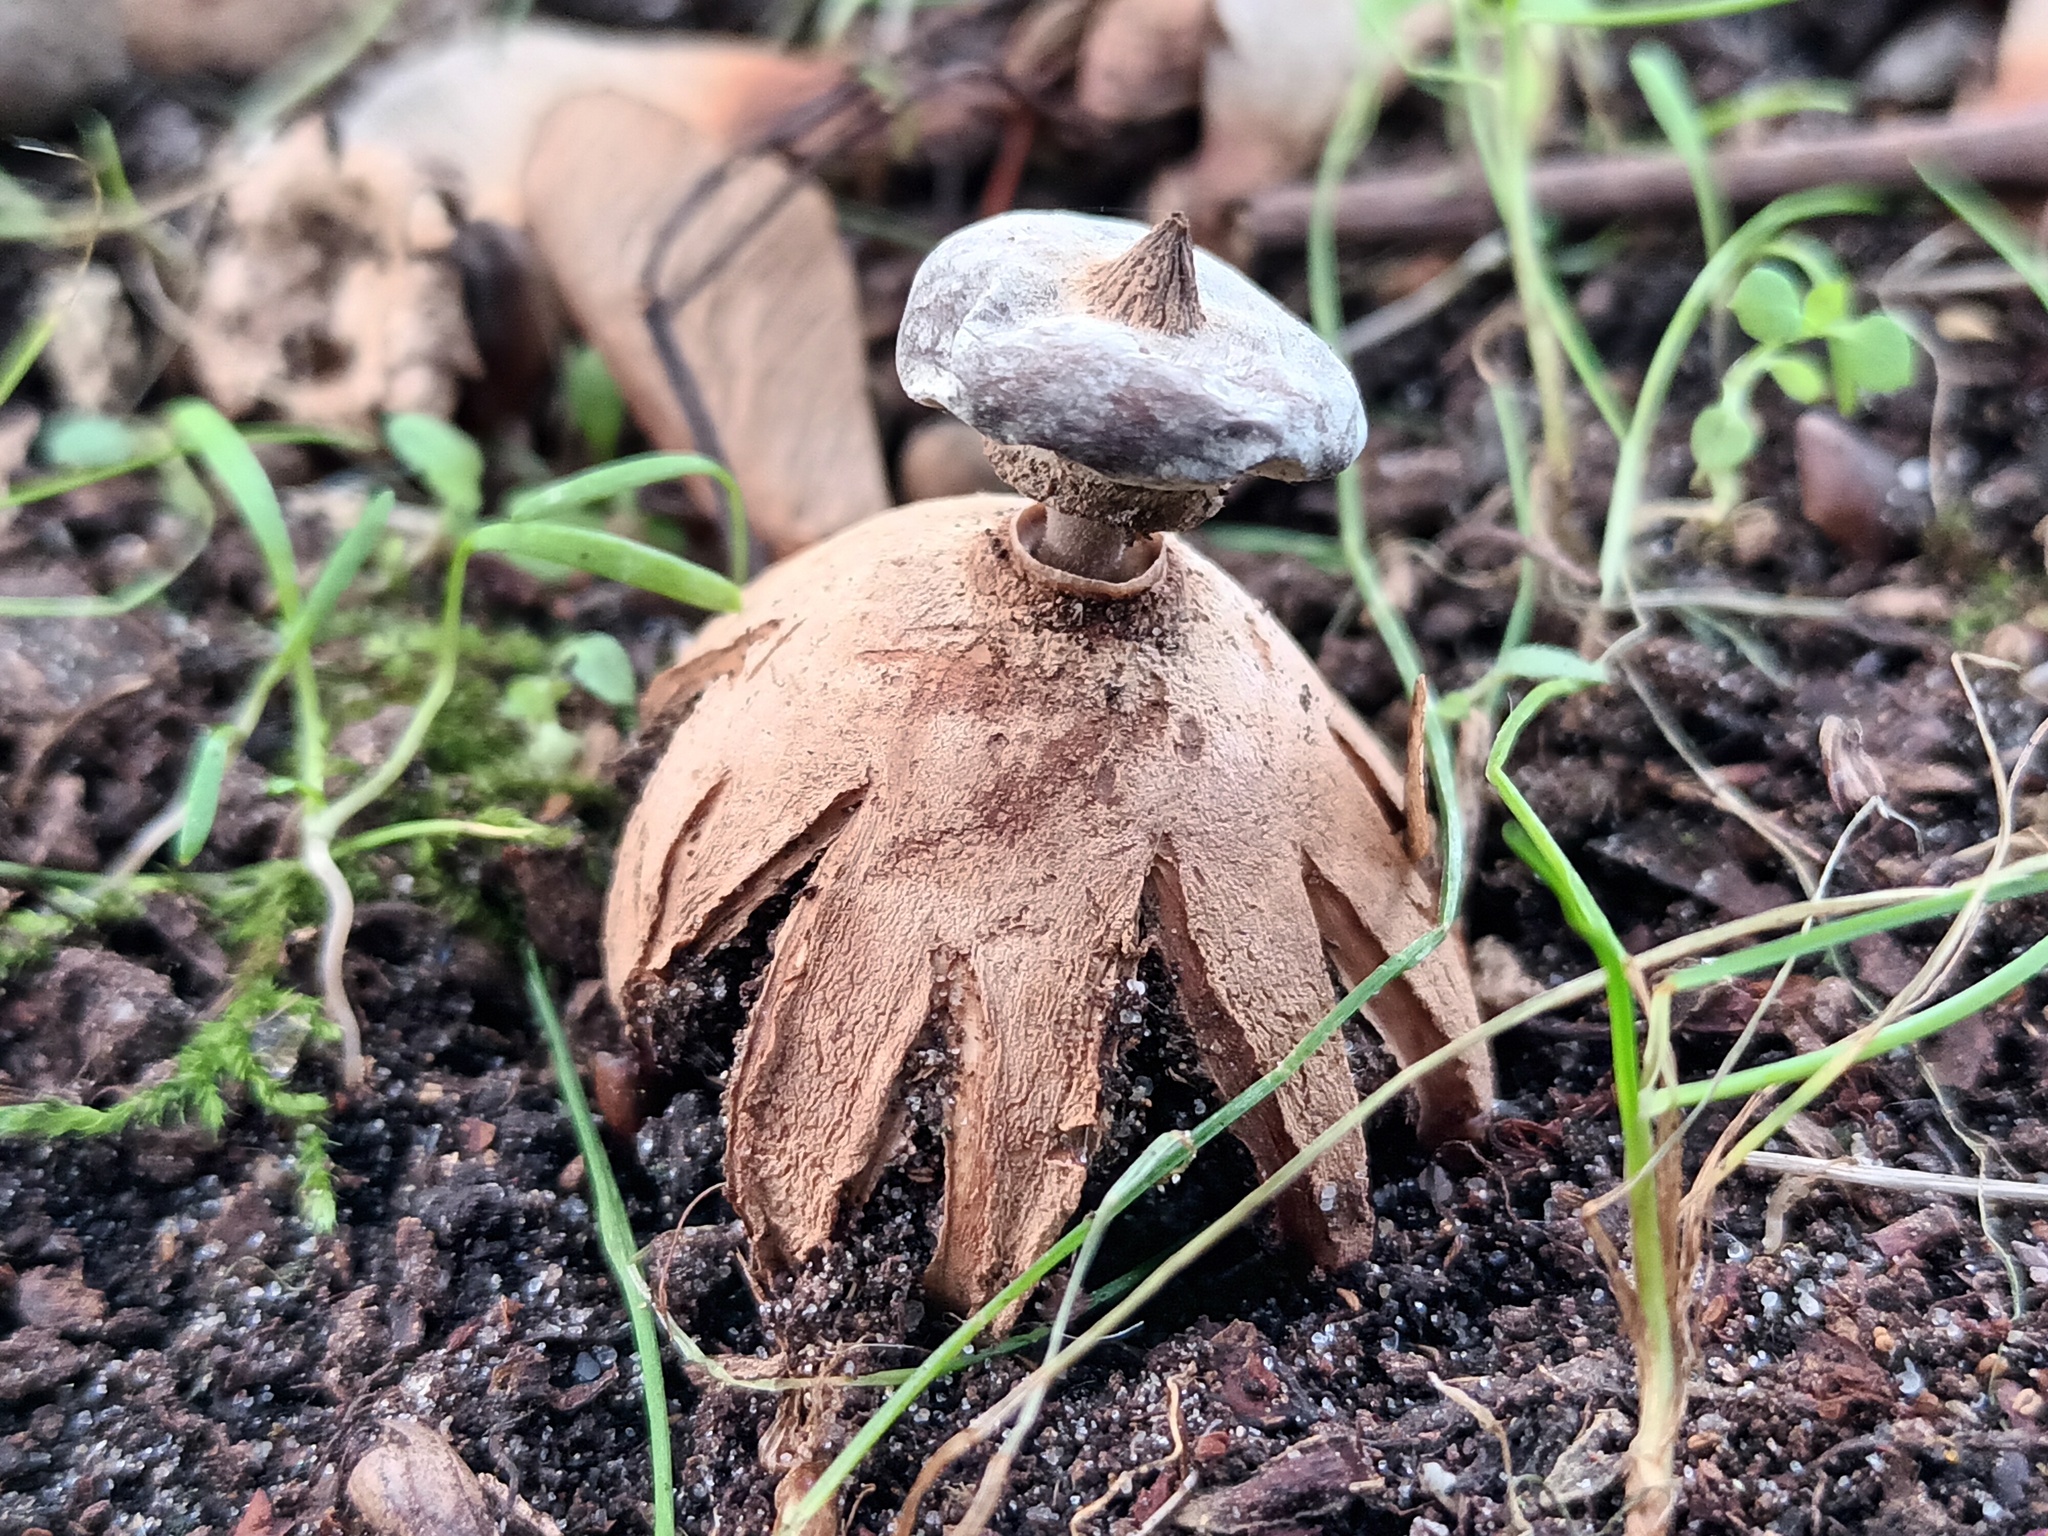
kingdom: Fungi
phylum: Basidiomycota
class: Agaricomycetes
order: Geastrales
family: Geastraceae
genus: Geastrum
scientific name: Geastrum striatum
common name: Striate earthstar
